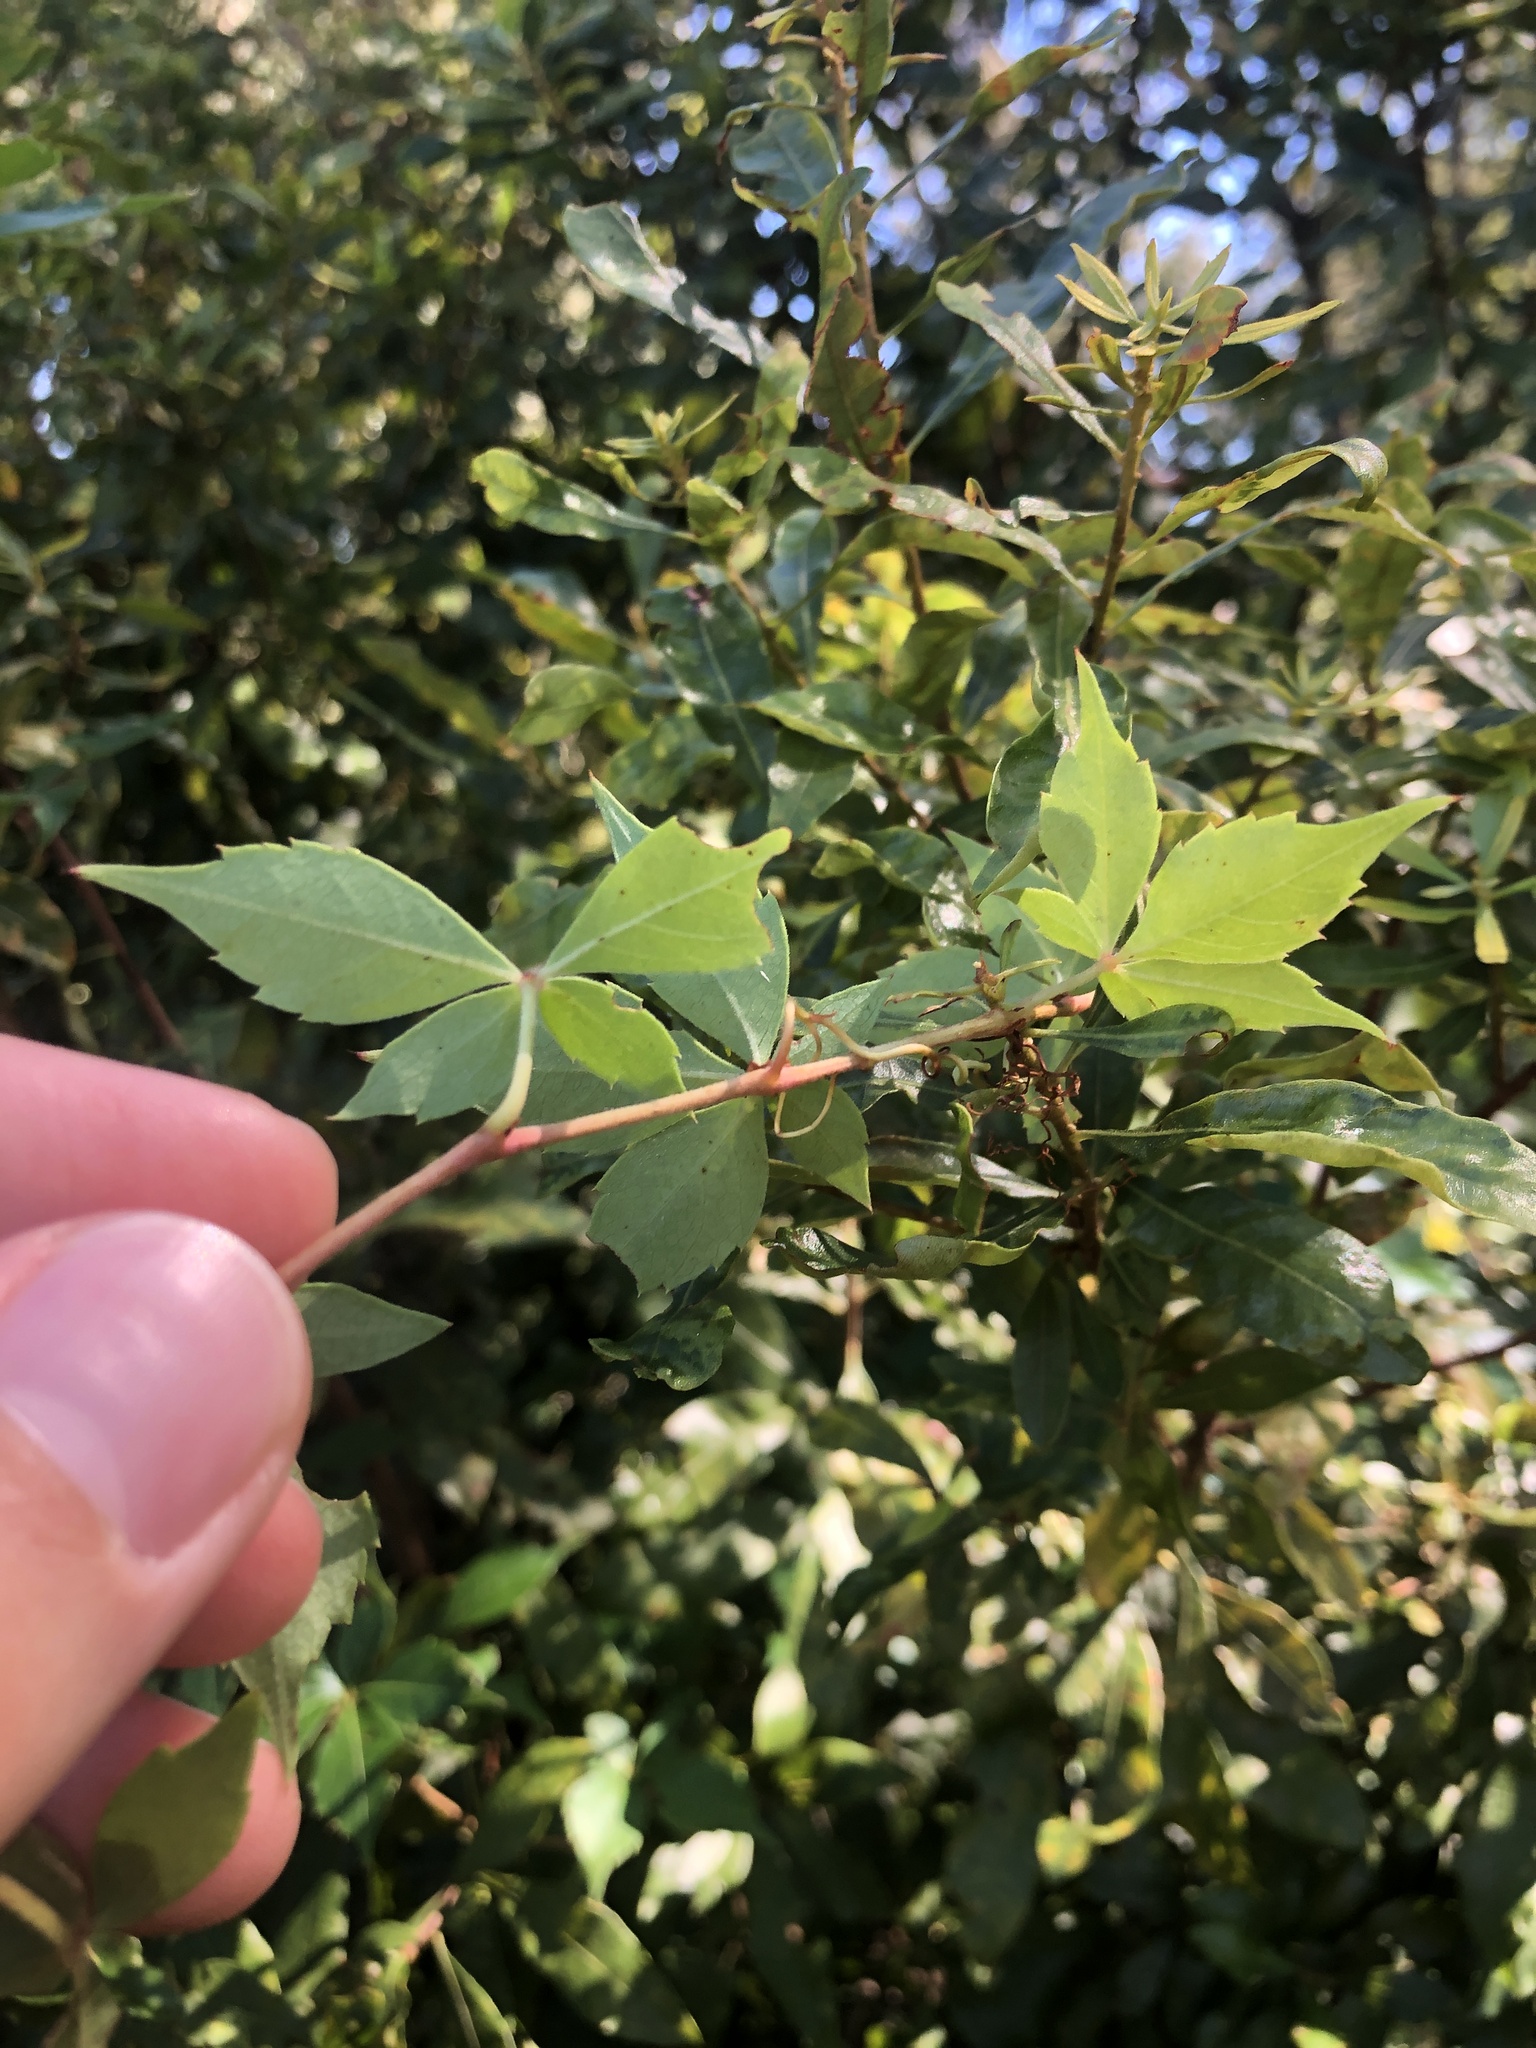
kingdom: Plantae
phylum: Tracheophyta
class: Magnoliopsida
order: Vitales
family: Vitaceae
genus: Parthenocissus
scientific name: Parthenocissus quinquefolia
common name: Virginia-creeper
